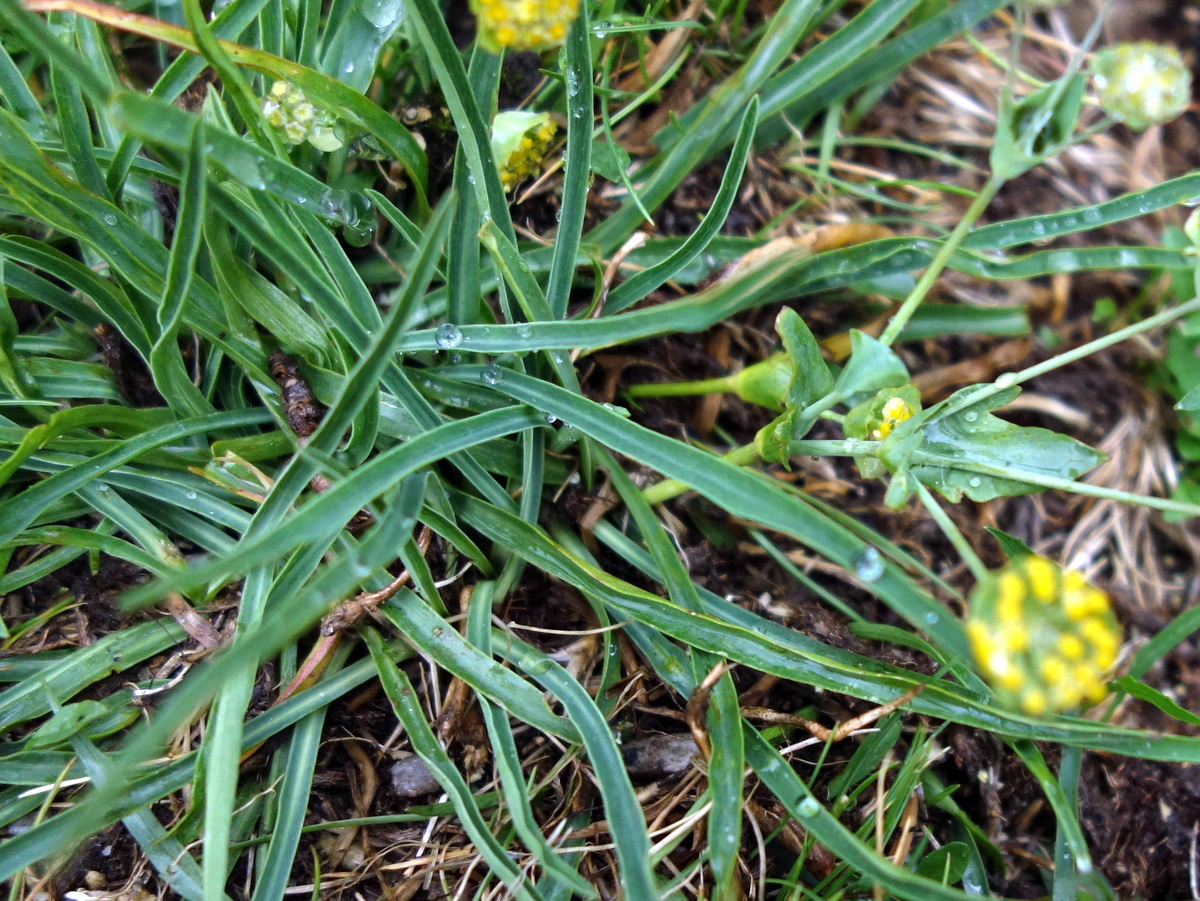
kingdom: Plantae
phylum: Tracheophyta
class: Magnoliopsida
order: Apiales
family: Apiaceae
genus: Bupleurum
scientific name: Bupleurum stellatum
